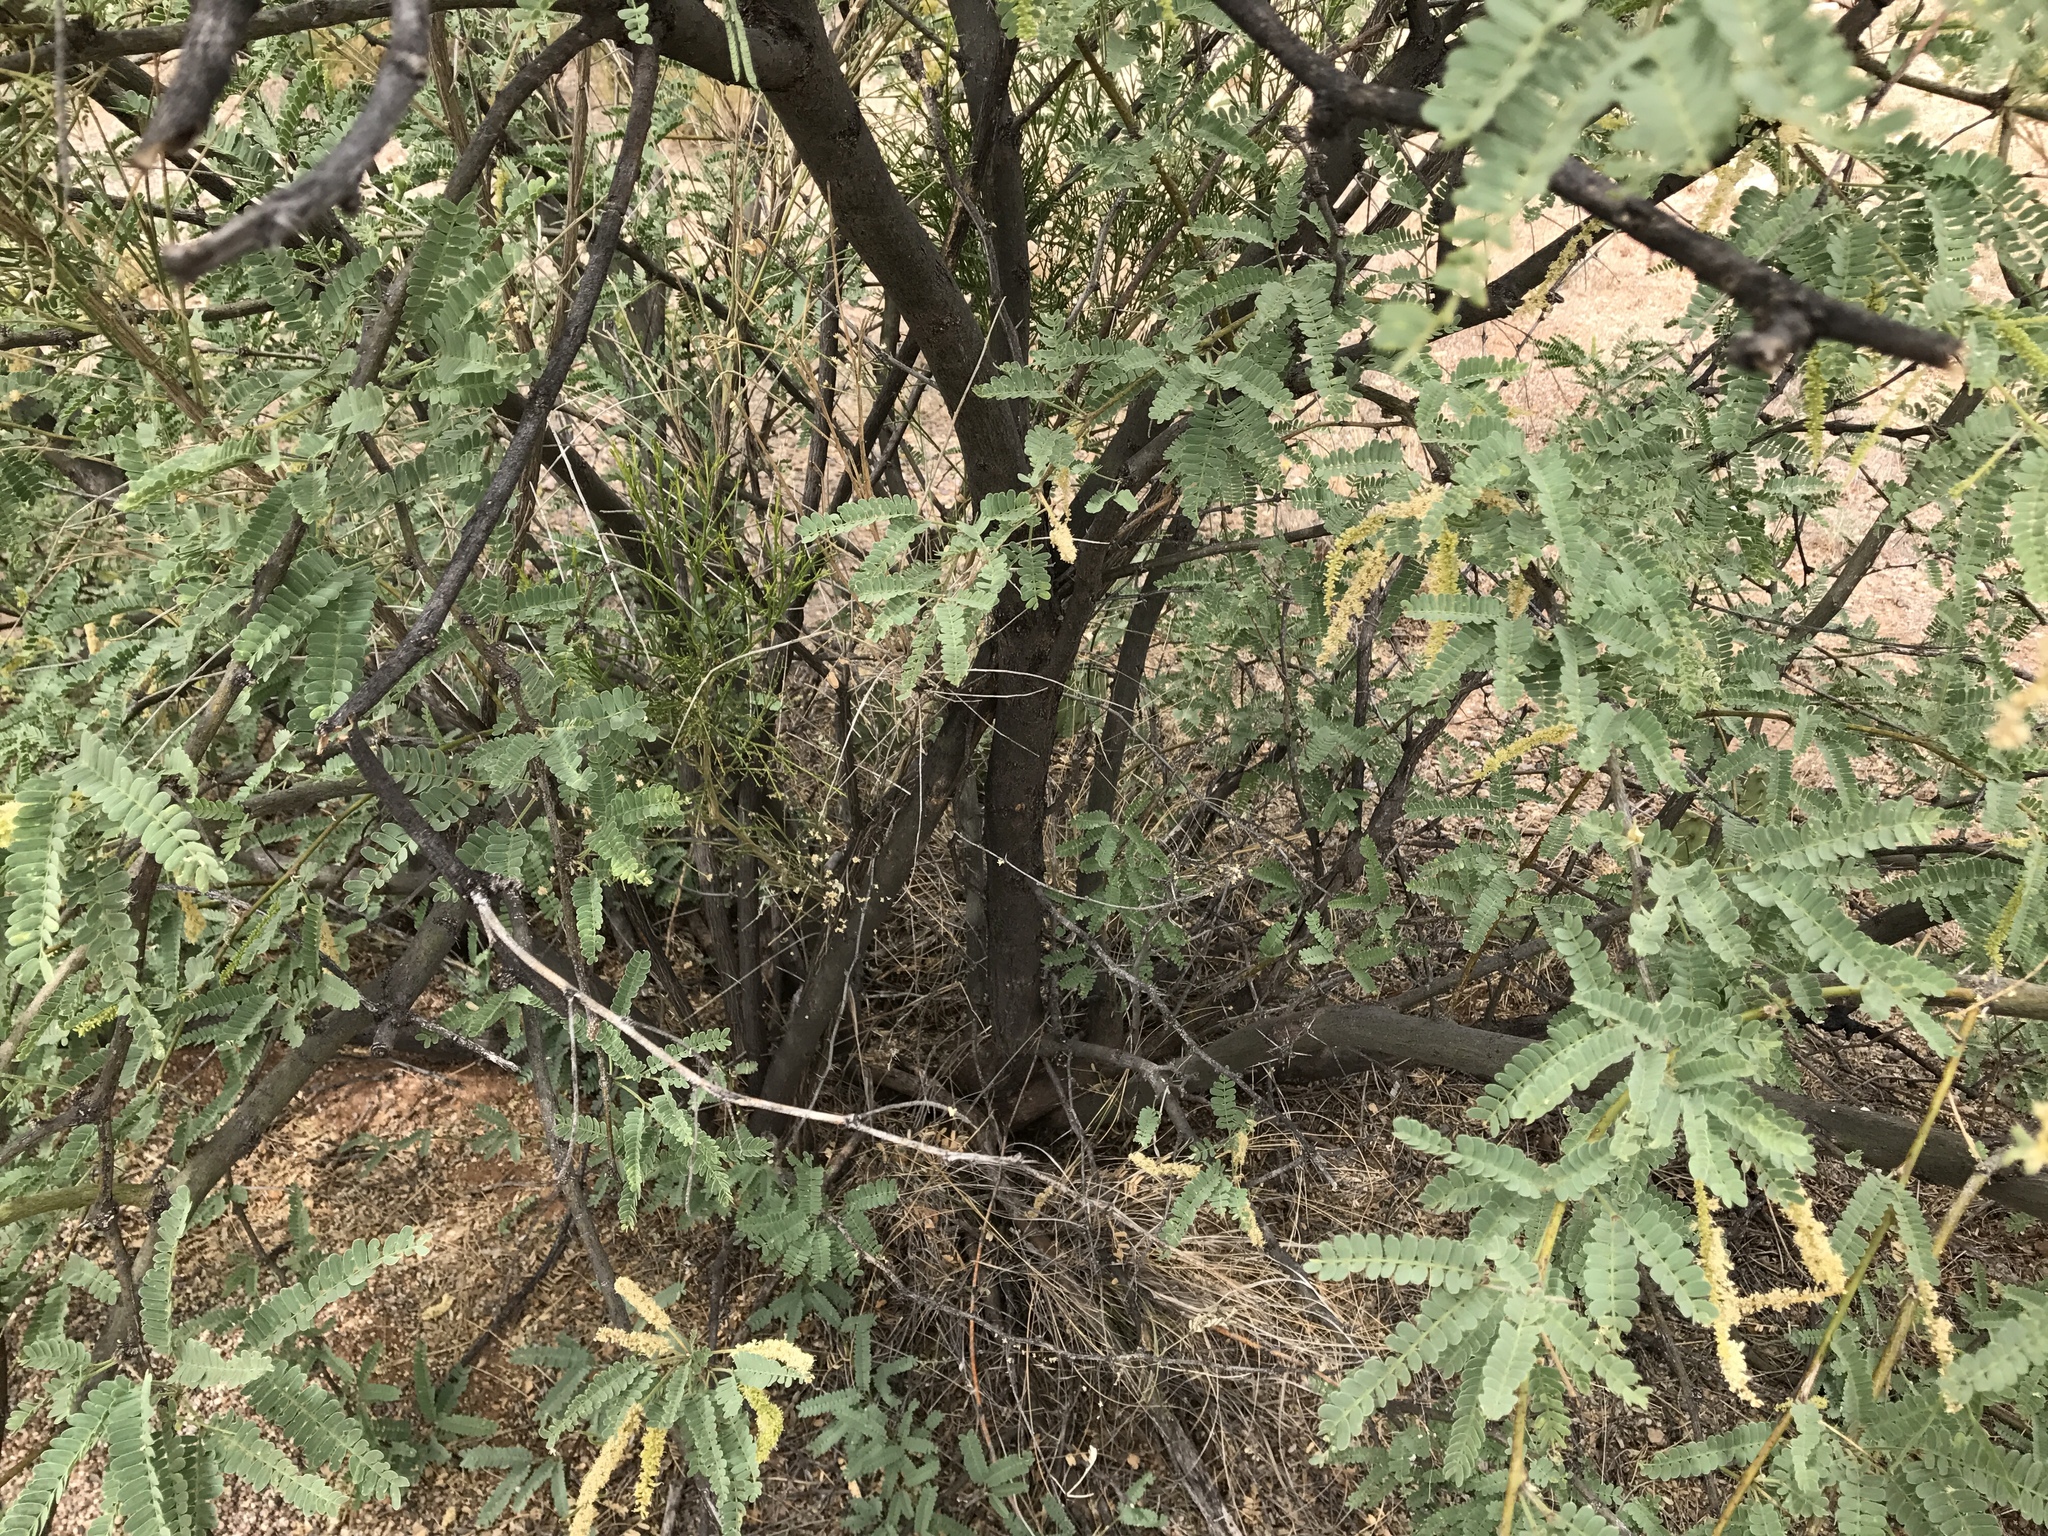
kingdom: Plantae
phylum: Tracheophyta
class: Magnoliopsida
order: Fabales
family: Fabaceae
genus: Prosopis
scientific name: Prosopis velutina
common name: Velvet mesquite
